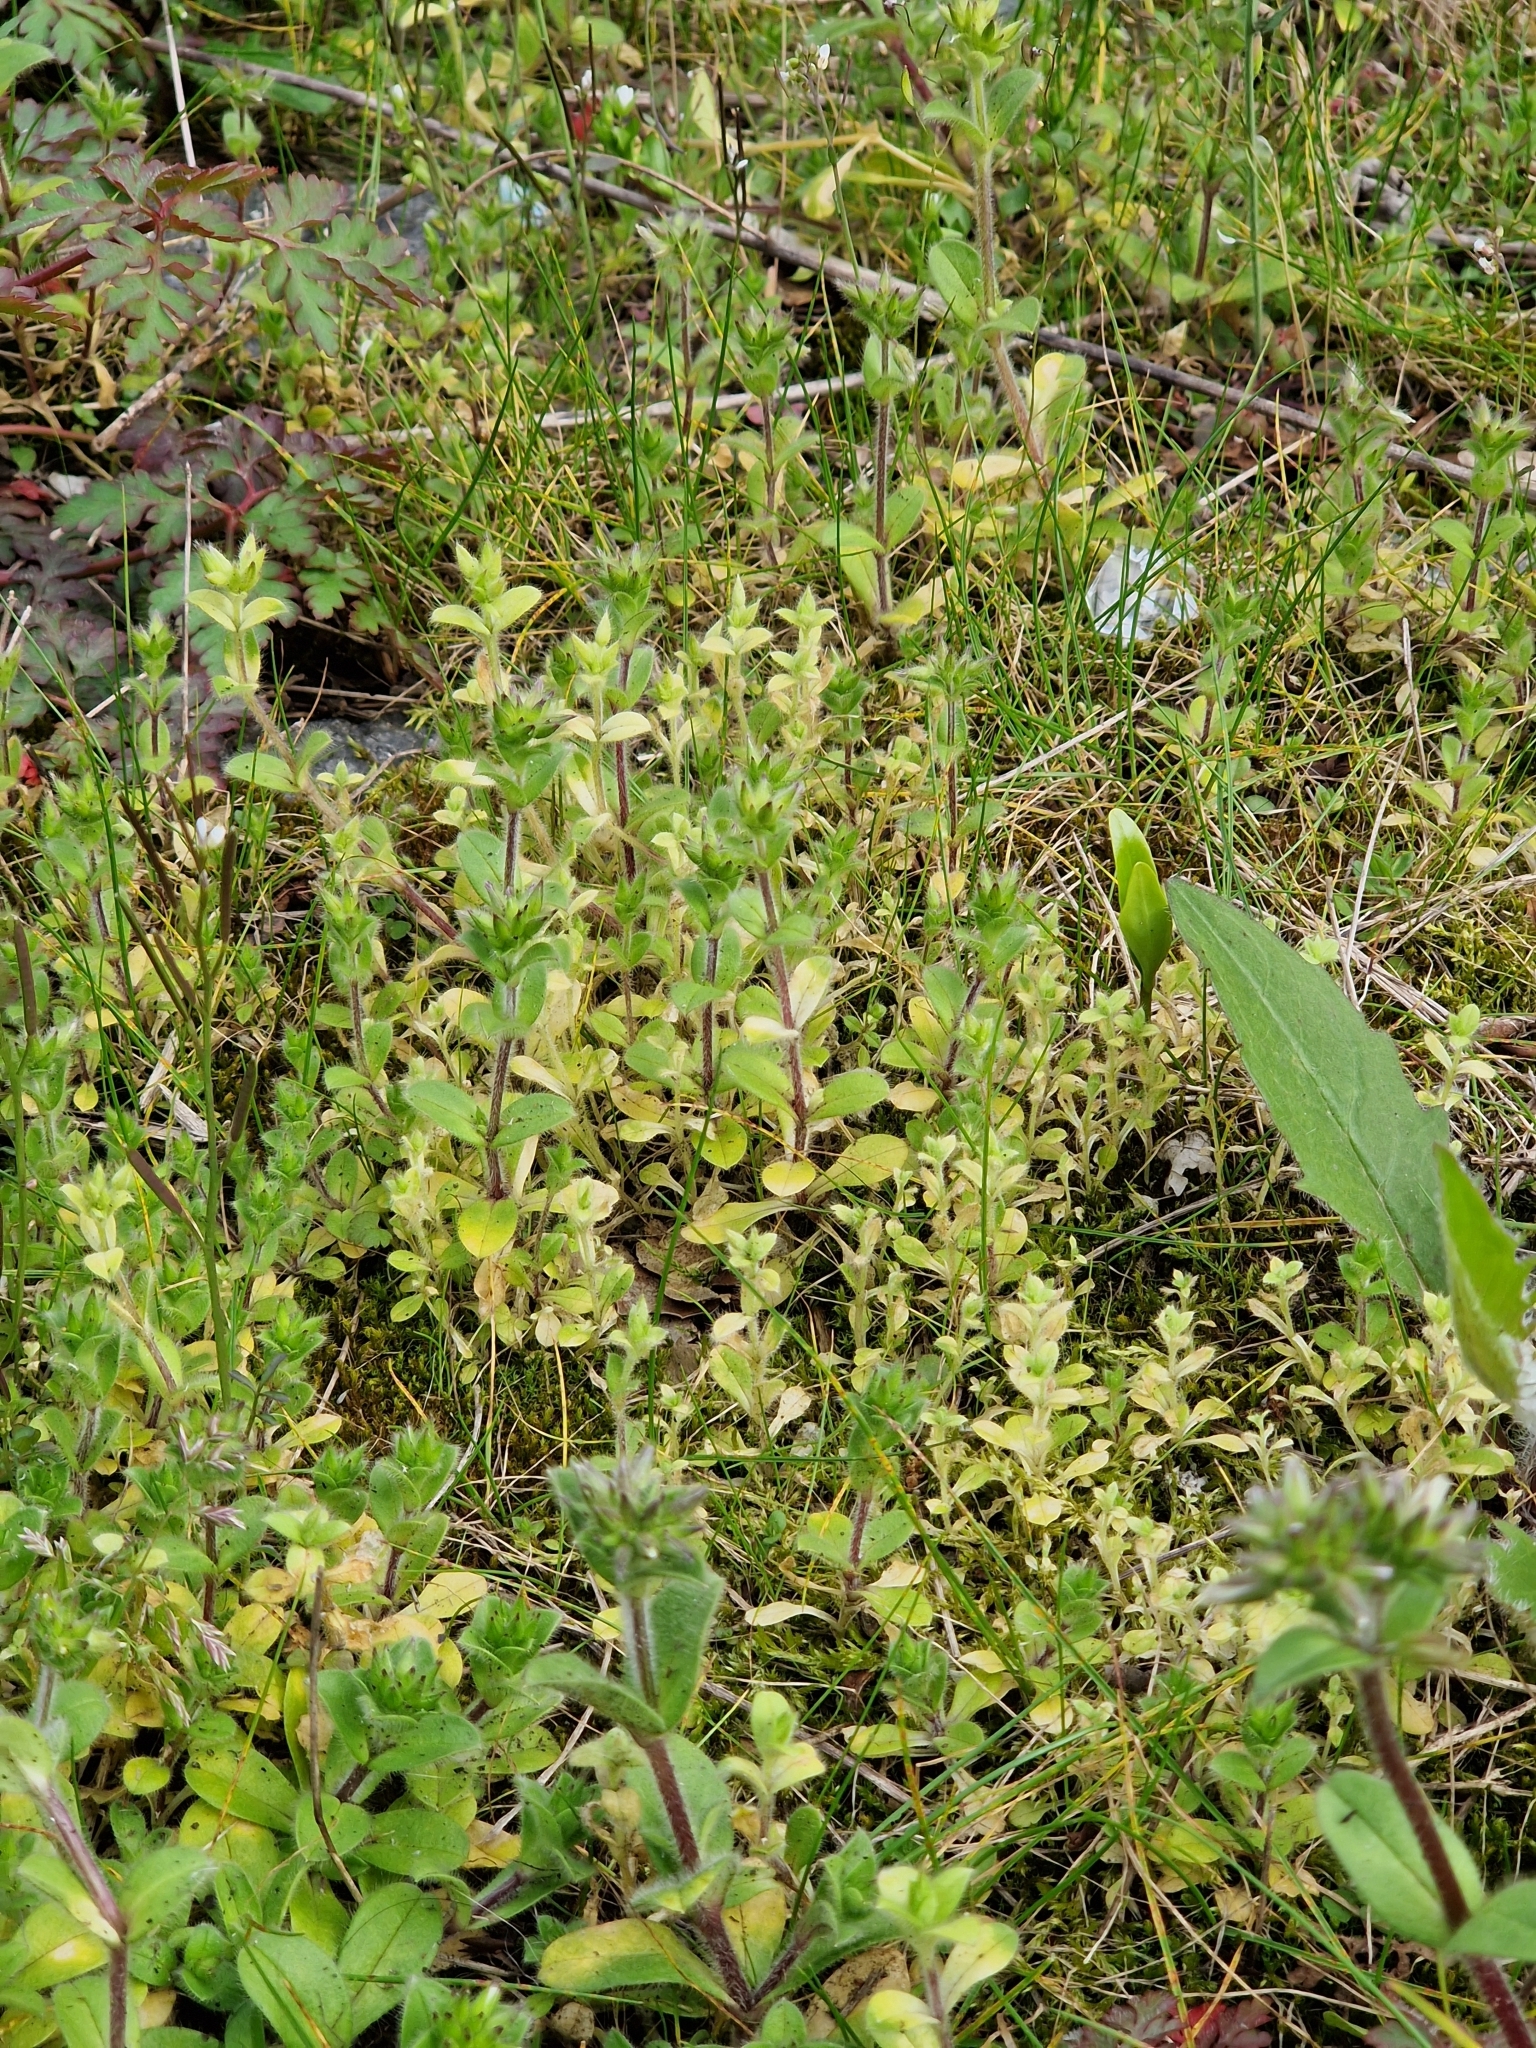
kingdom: Chromista
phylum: Oomycota
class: Peronosporea
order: Peronosporales
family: Peronosporaceae
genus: Peronospora
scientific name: Peronospora tomentosa
